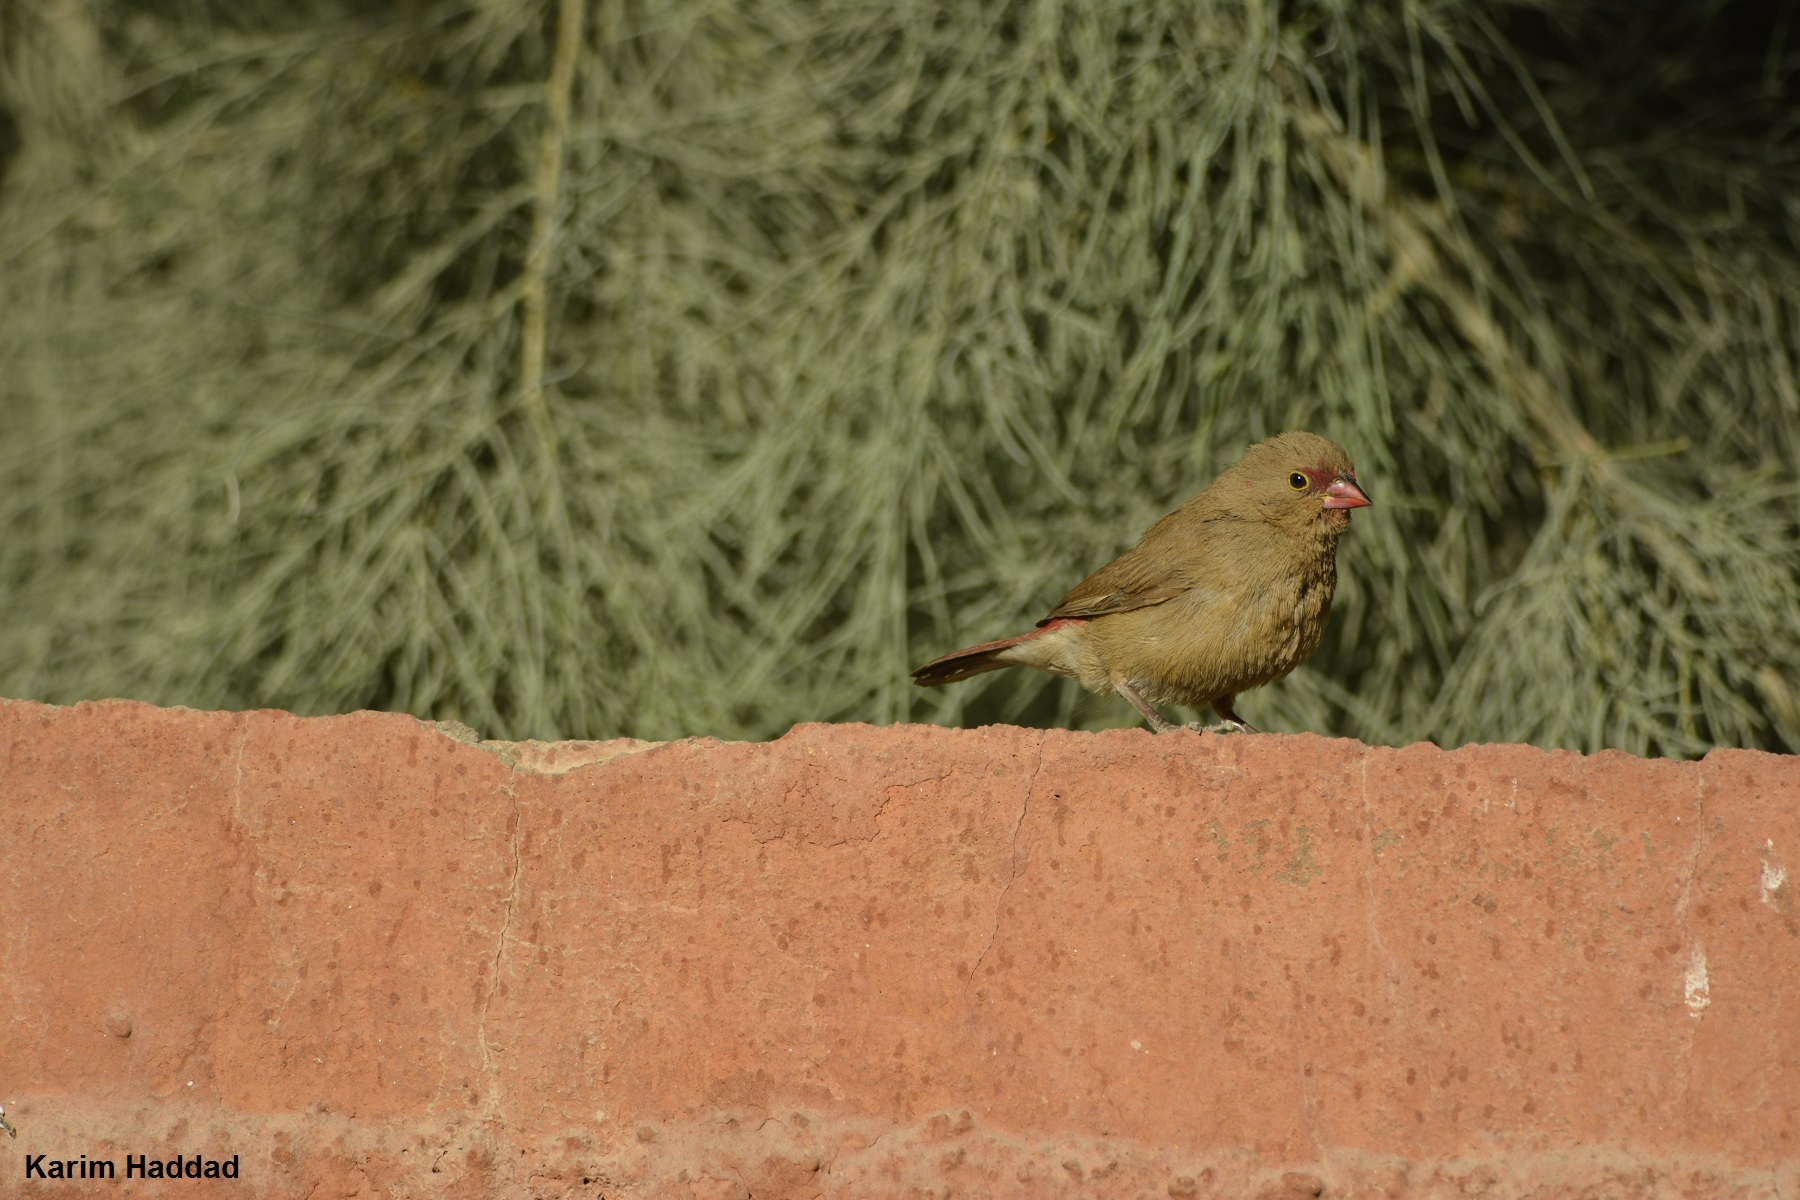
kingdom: Animalia
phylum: Chordata
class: Aves
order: Passeriformes
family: Estrildidae
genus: Lagonosticta
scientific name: Lagonosticta senegala
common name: Red-billed firefinch
